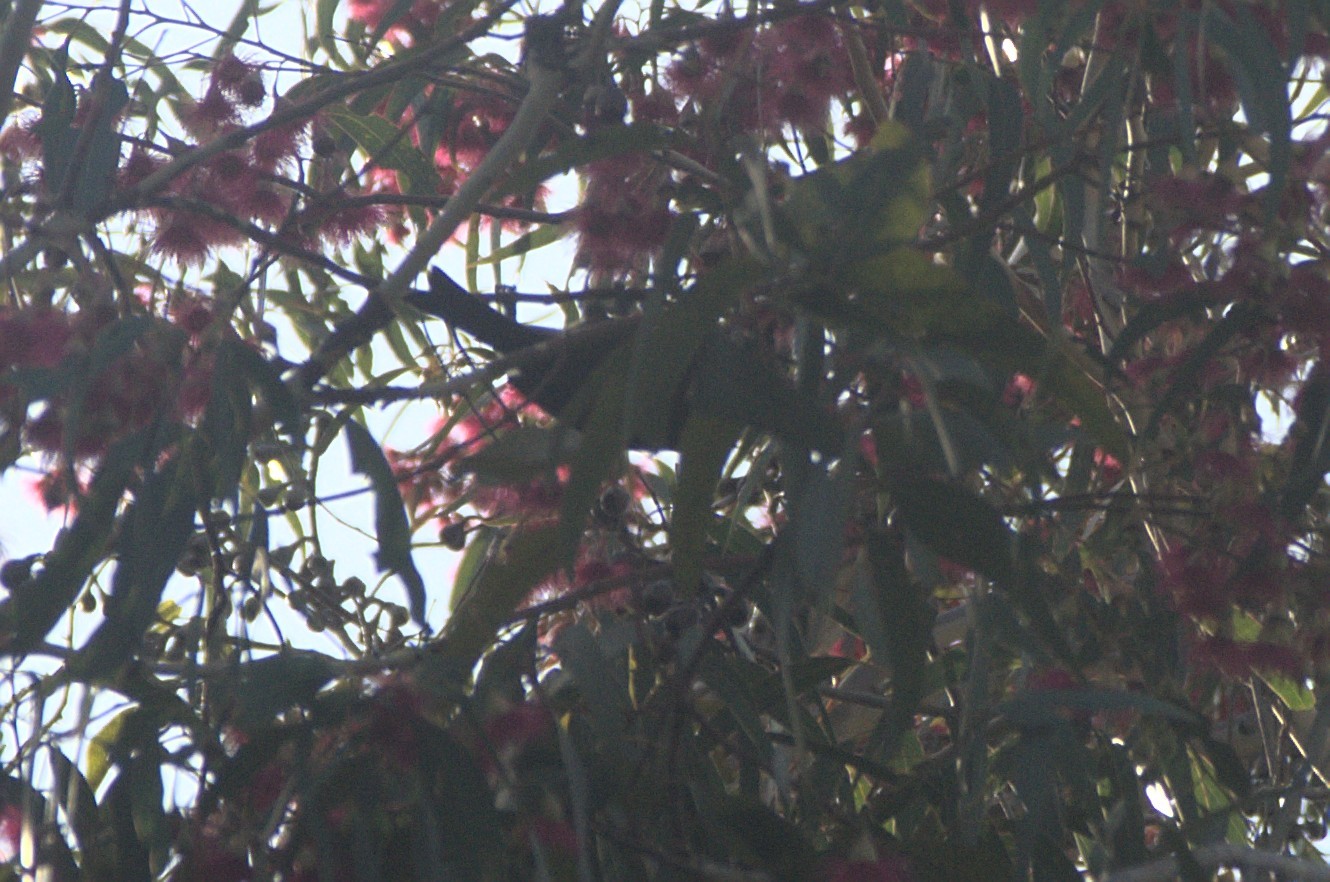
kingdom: Animalia
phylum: Chordata
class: Aves
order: Passeriformes
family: Meliphagidae
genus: Anthornis
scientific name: Anthornis melanura
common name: New zealand bellbird
